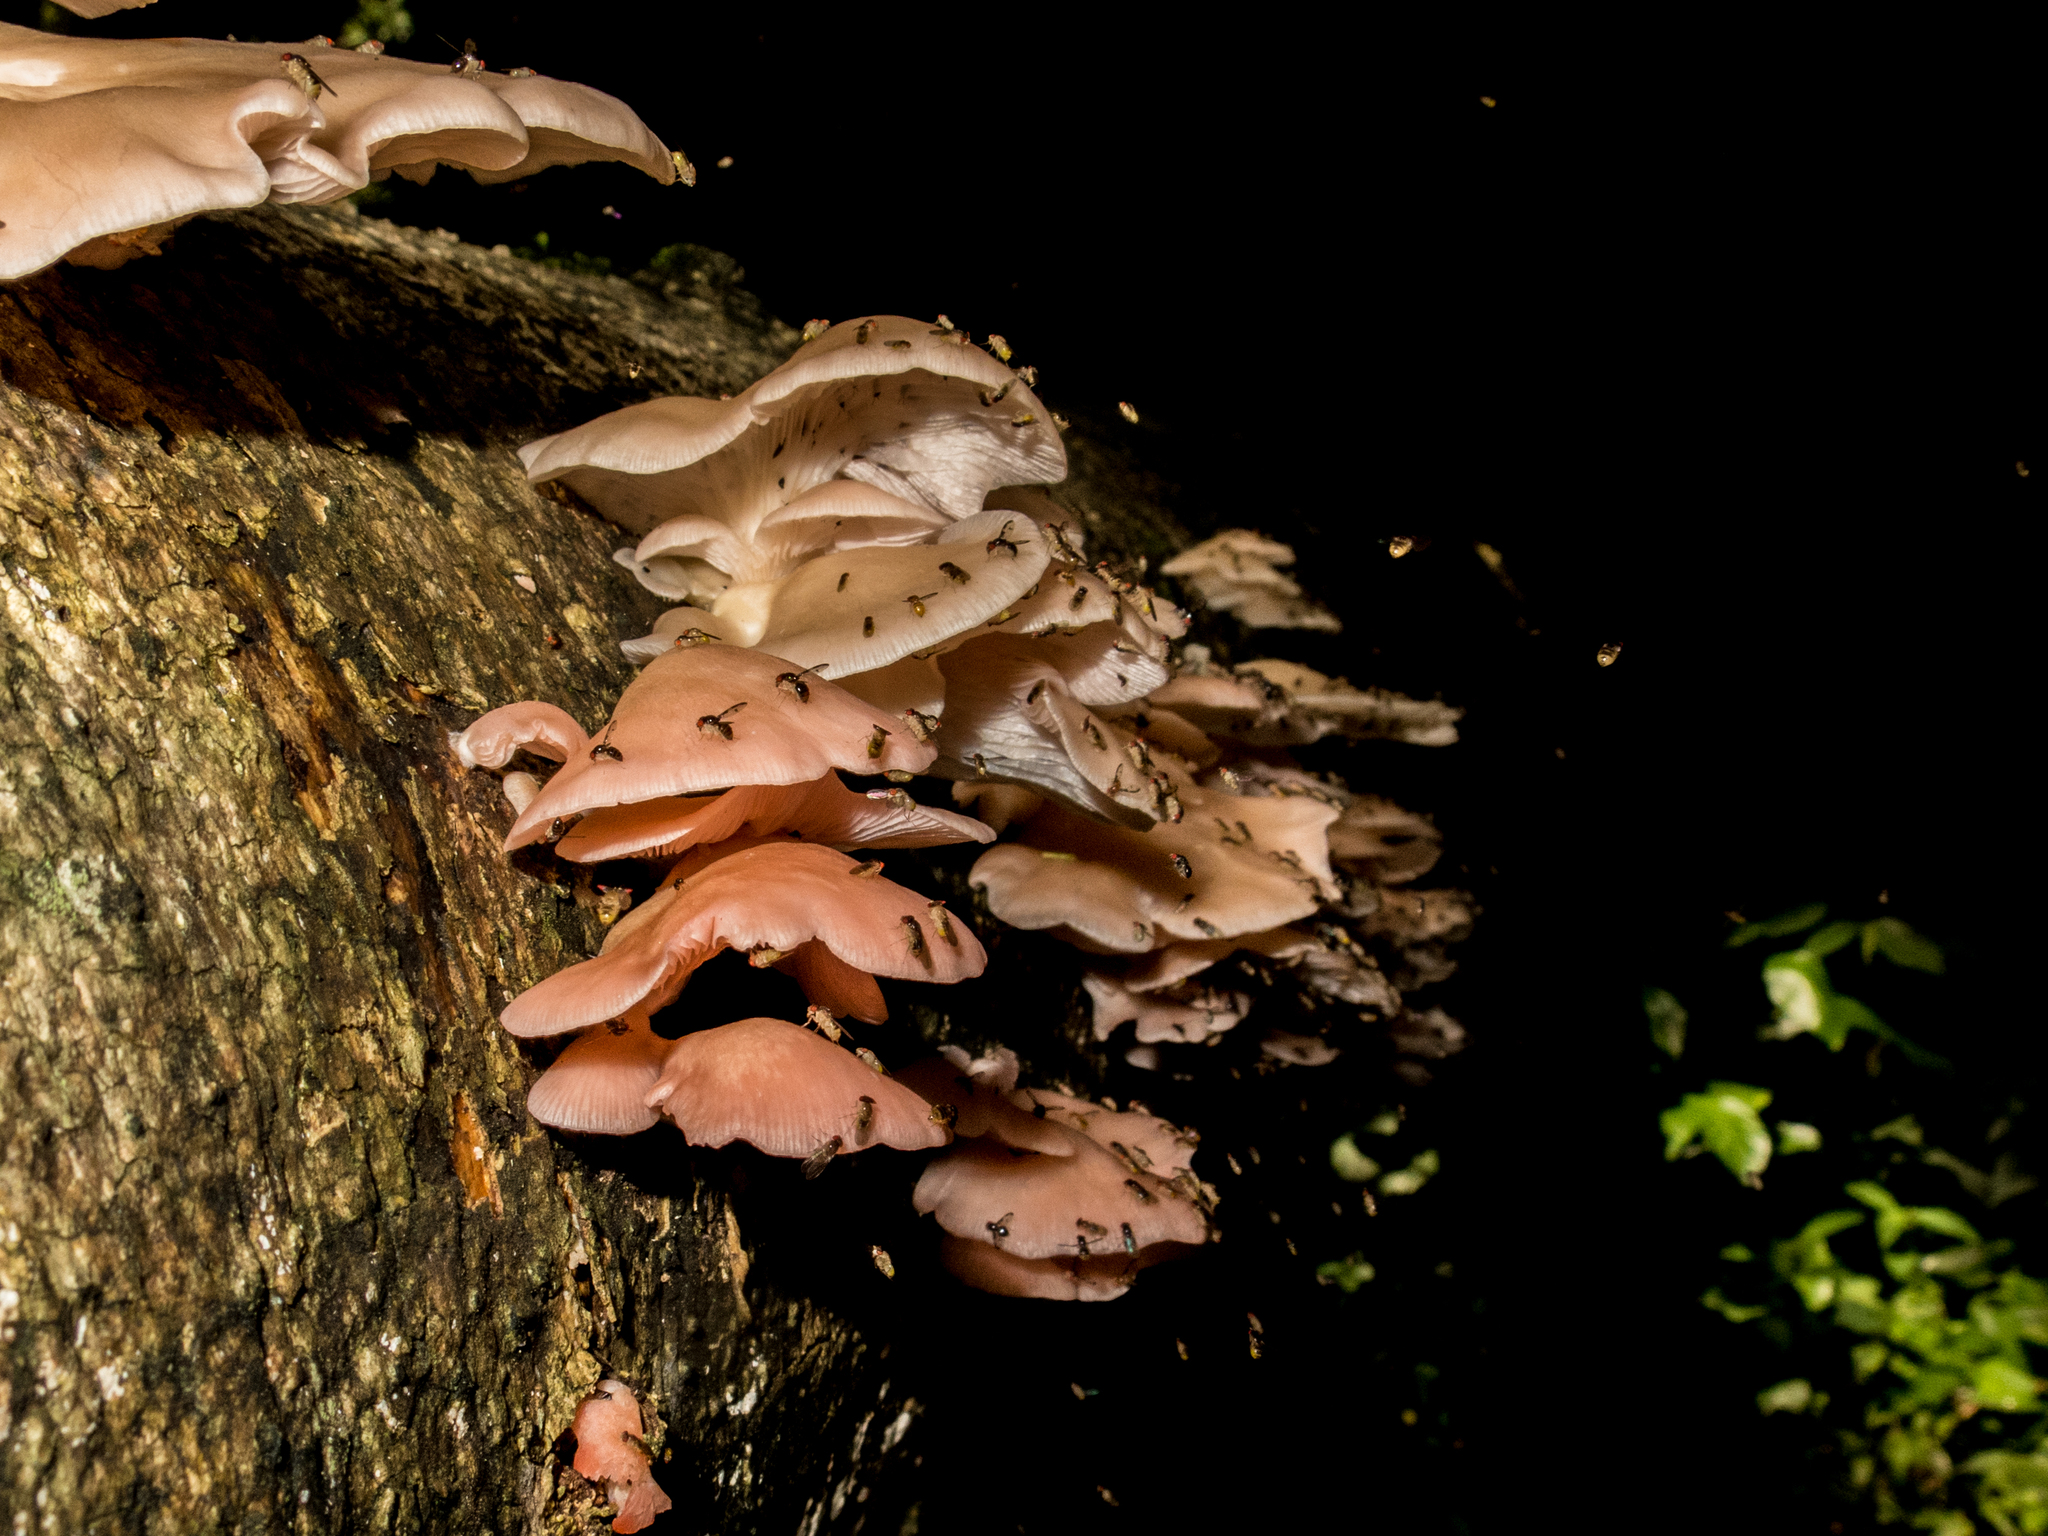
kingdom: Fungi
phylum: Basidiomycota
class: Agaricomycetes
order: Agaricales
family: Pleurotaceae
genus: Pleurotus
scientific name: Pleurotus djamor
